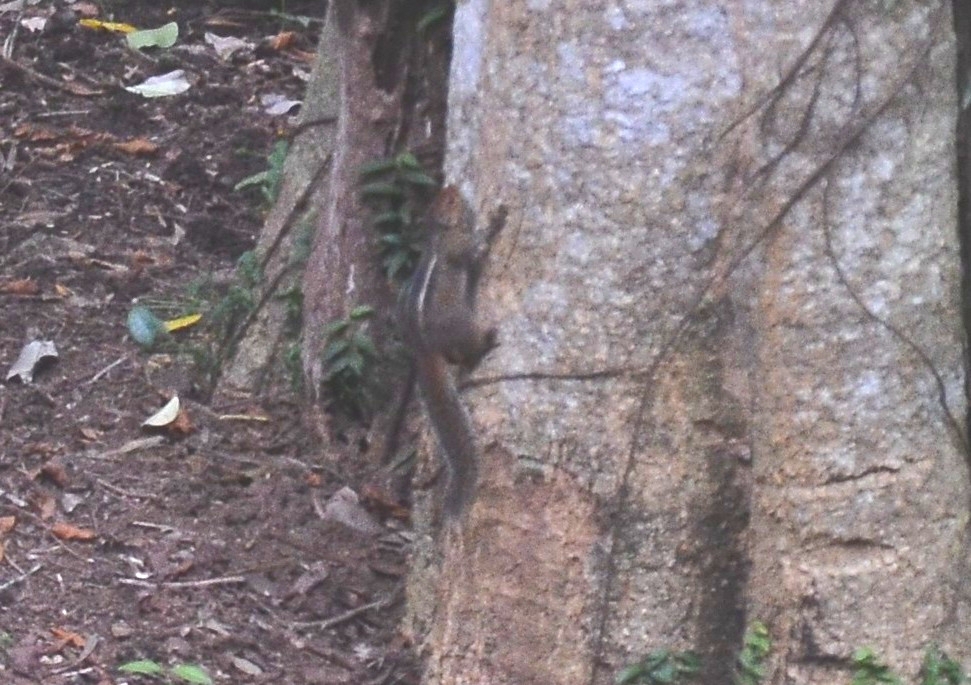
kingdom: Animalia
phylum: Chordata
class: Mammalia
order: Rodentia
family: Sciuridae
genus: Funambulus
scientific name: Funambulus tristriatus
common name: Jungle palm squirrel
